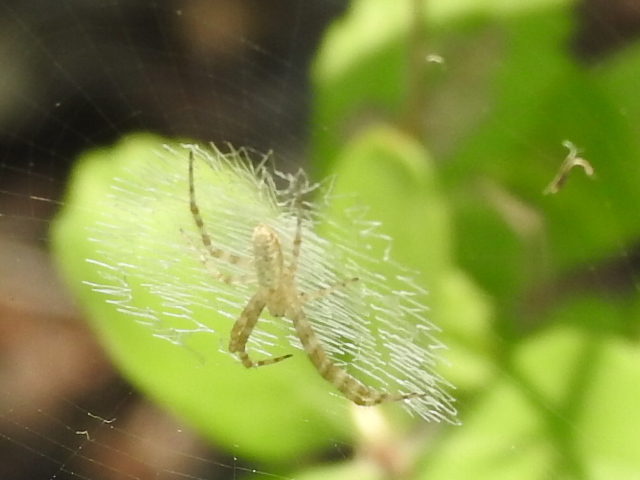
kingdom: Animalia
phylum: Arthropoda
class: Arachnida
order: Araneae
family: Araneidae
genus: Argiope
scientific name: Argiope aurantia
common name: Orb weavers
